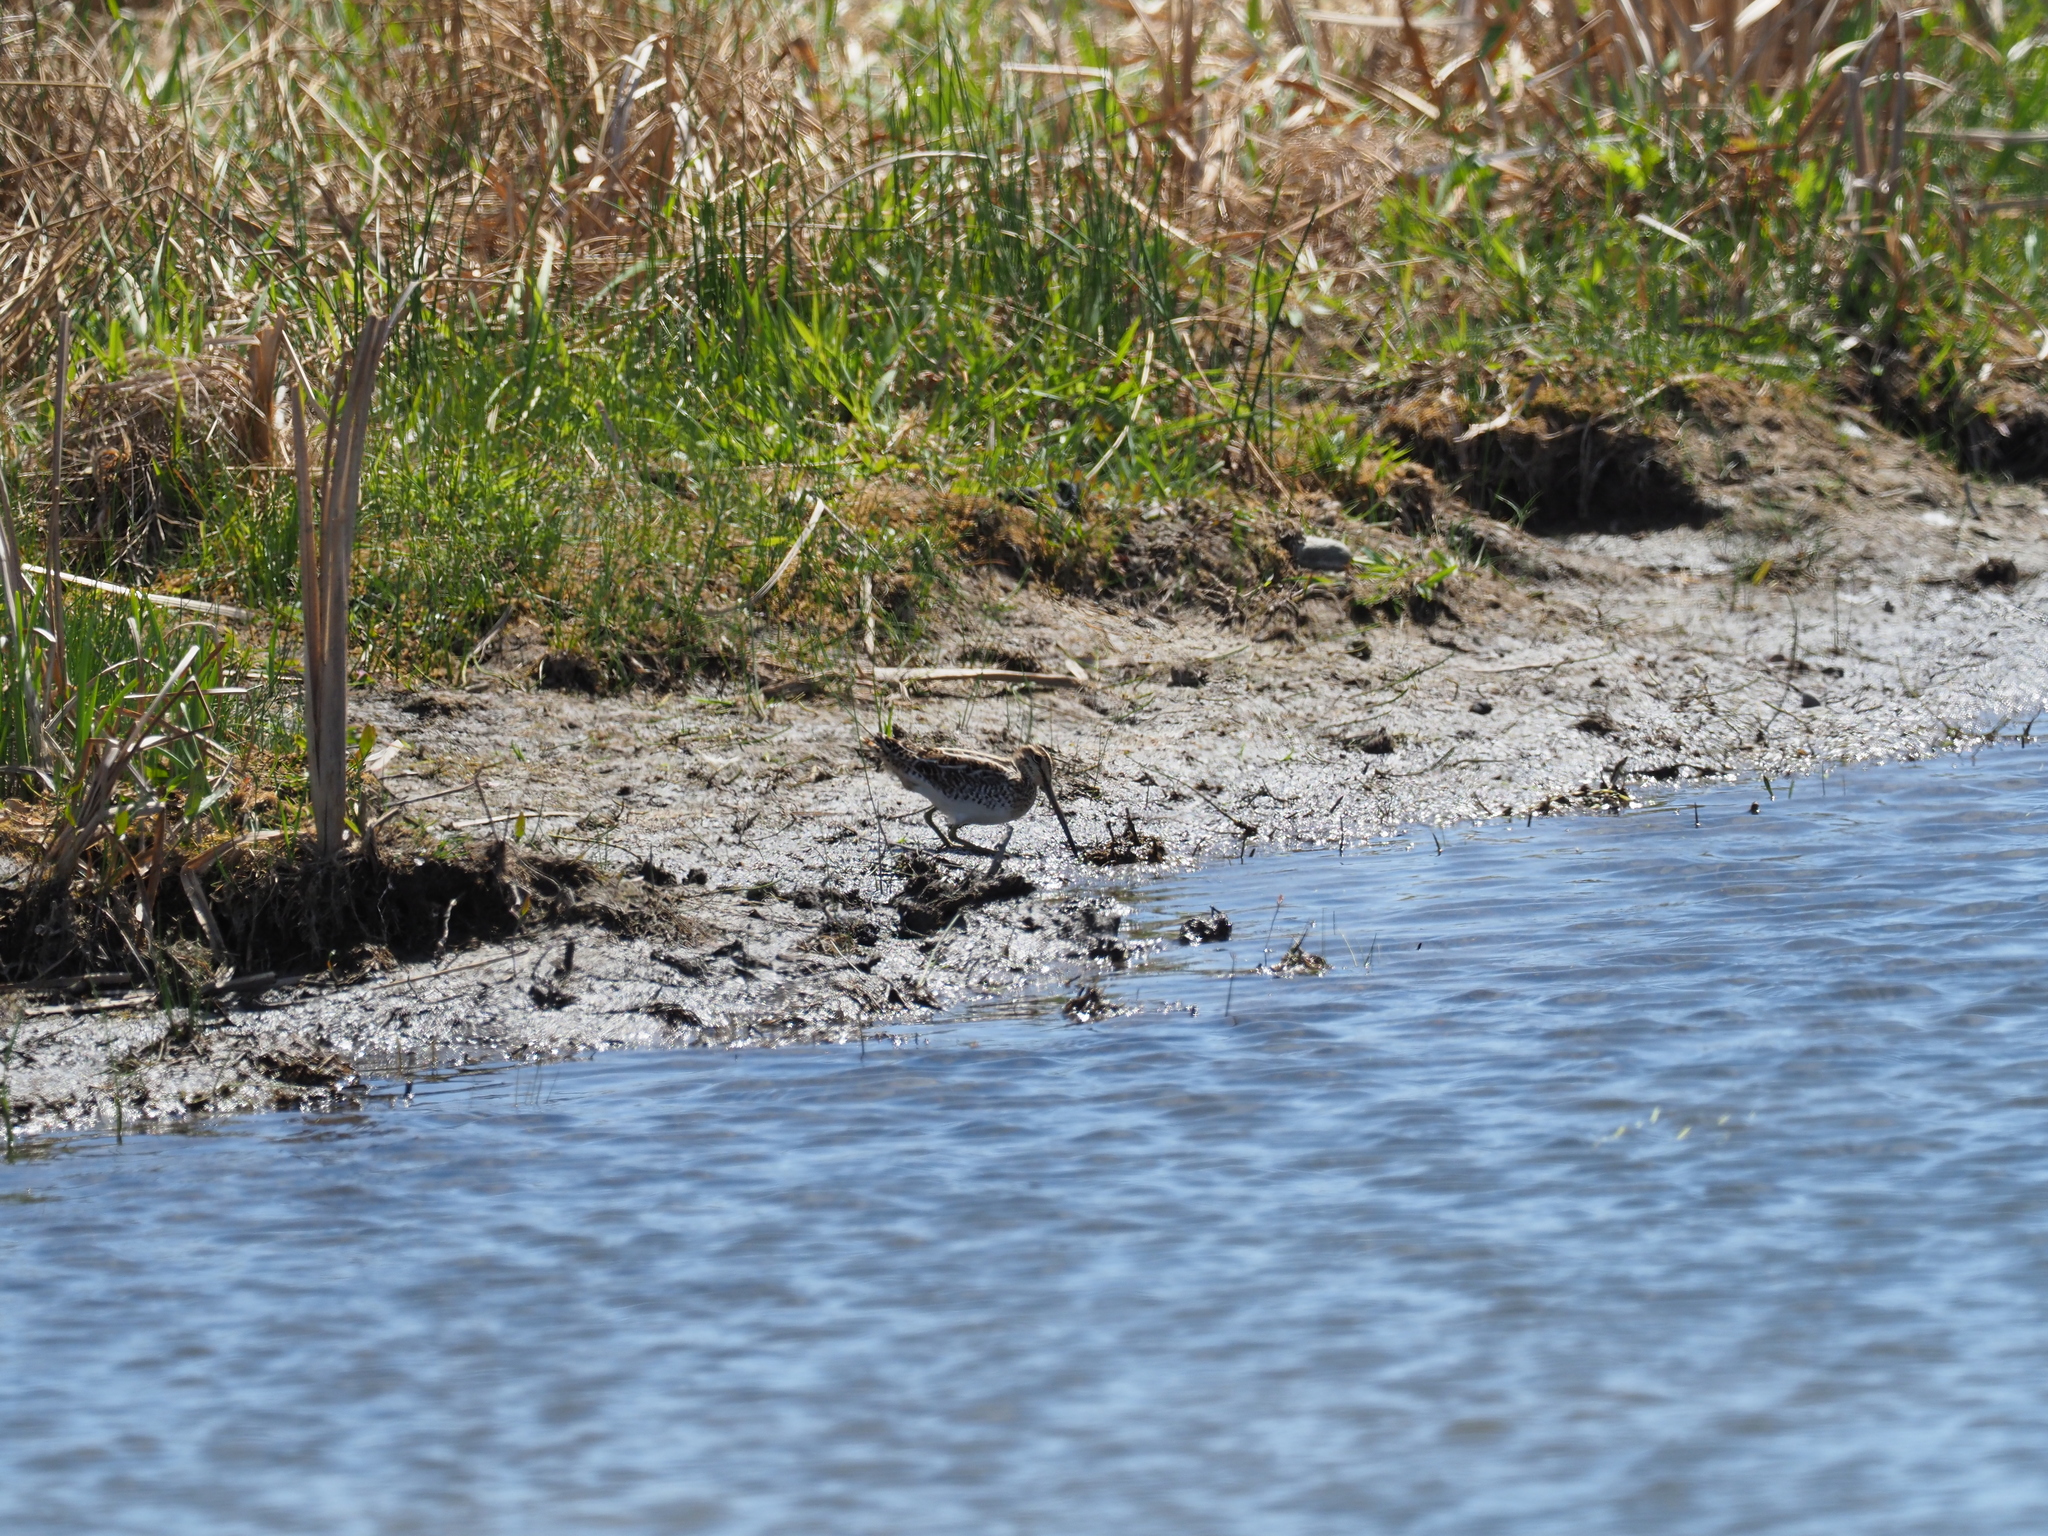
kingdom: Animalia
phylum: Chordata
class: Aves
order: Charadriiformes
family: Scolopacidae
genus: Gallinago
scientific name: Gallinago delicata
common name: Wilson's snipe
